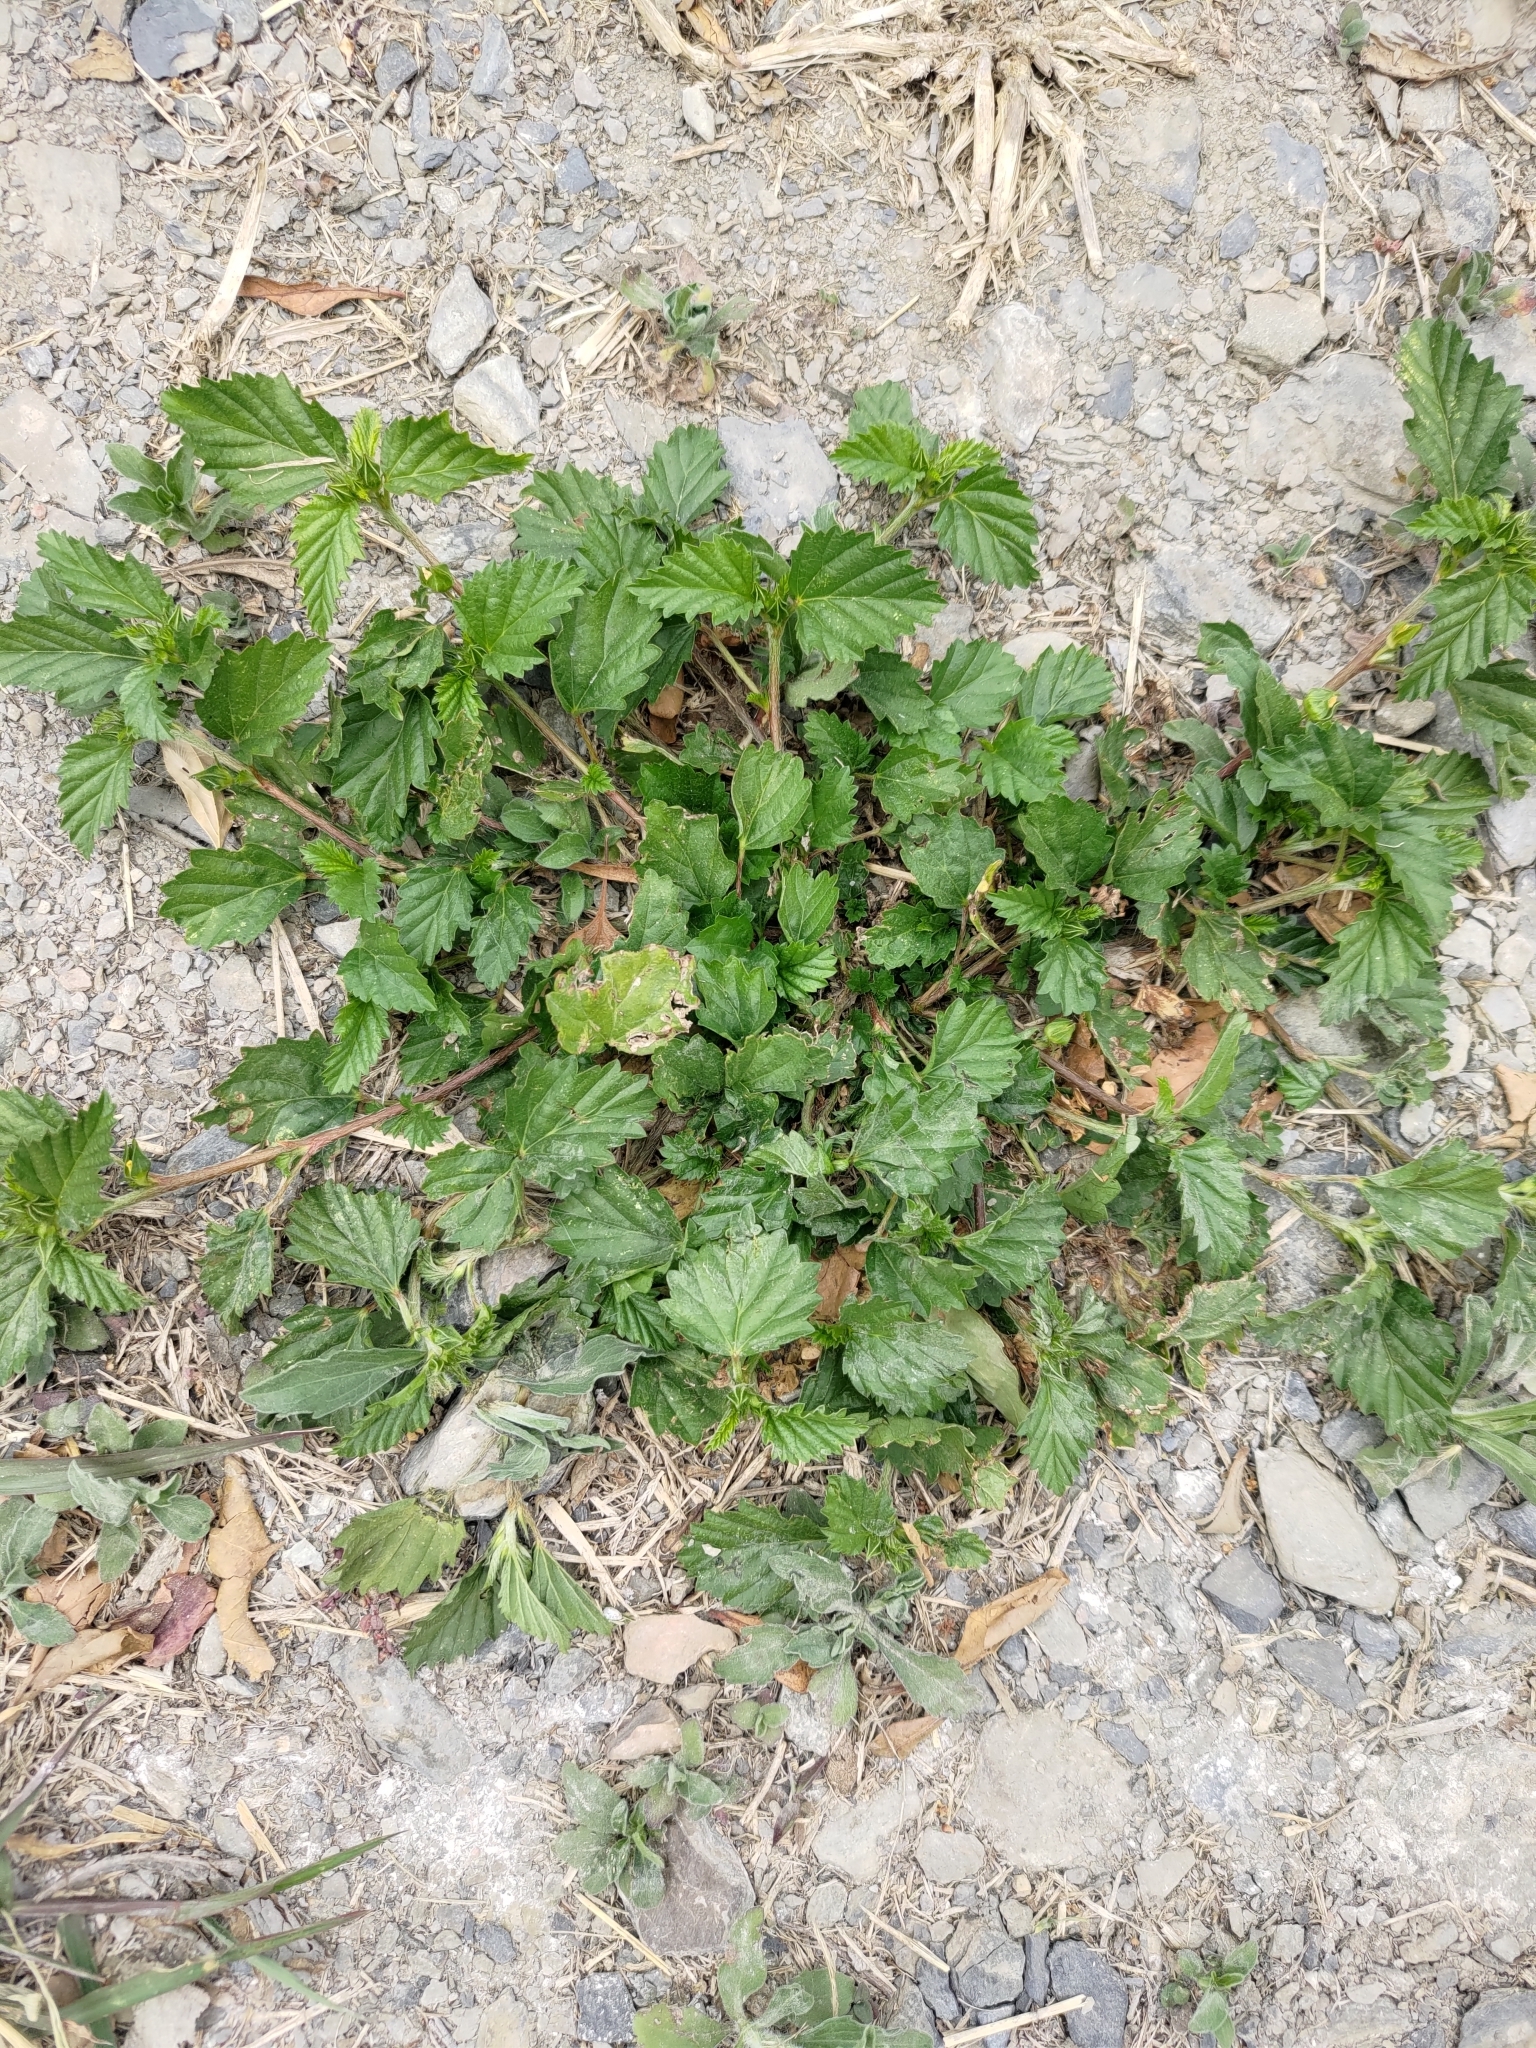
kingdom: Plantae
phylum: Tracheophyta
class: Magnoliopsida
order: Malvales
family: Malvaceae
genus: Malvastrum
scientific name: Malvastrum coromandelianum
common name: Threelobe false mallow
